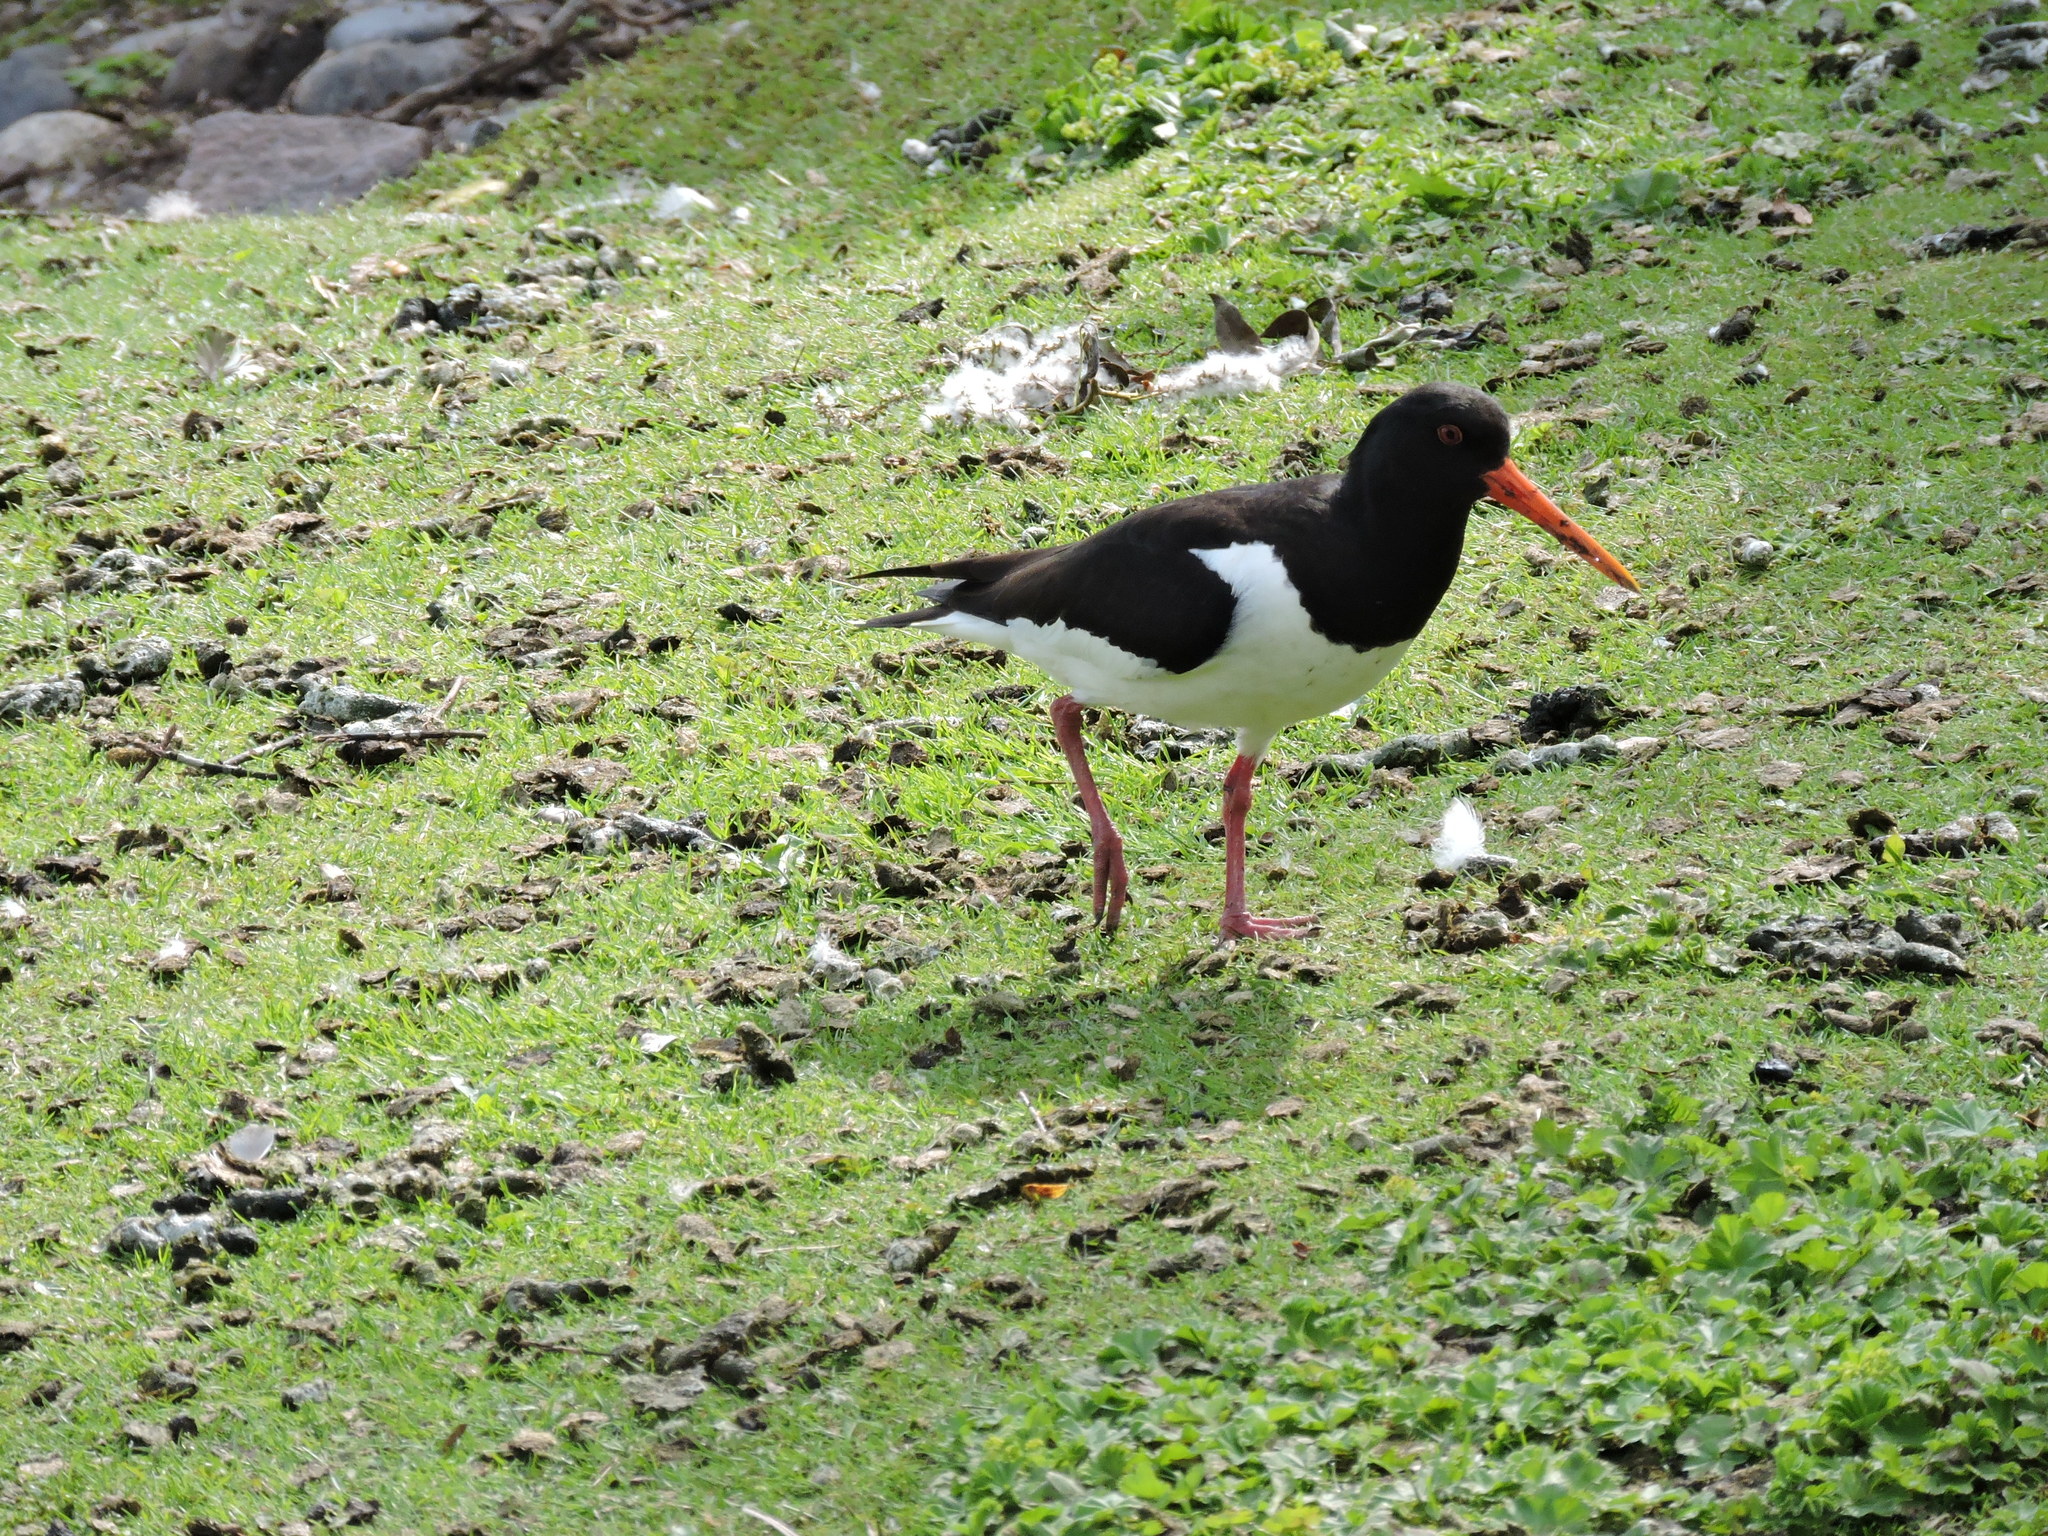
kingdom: Animalia
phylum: Chordata
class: Aves
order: Charadriiformes
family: Haematopodidae
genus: Haematopus
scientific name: Haematopus ostralegus
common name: Eurasian oystercatcher
